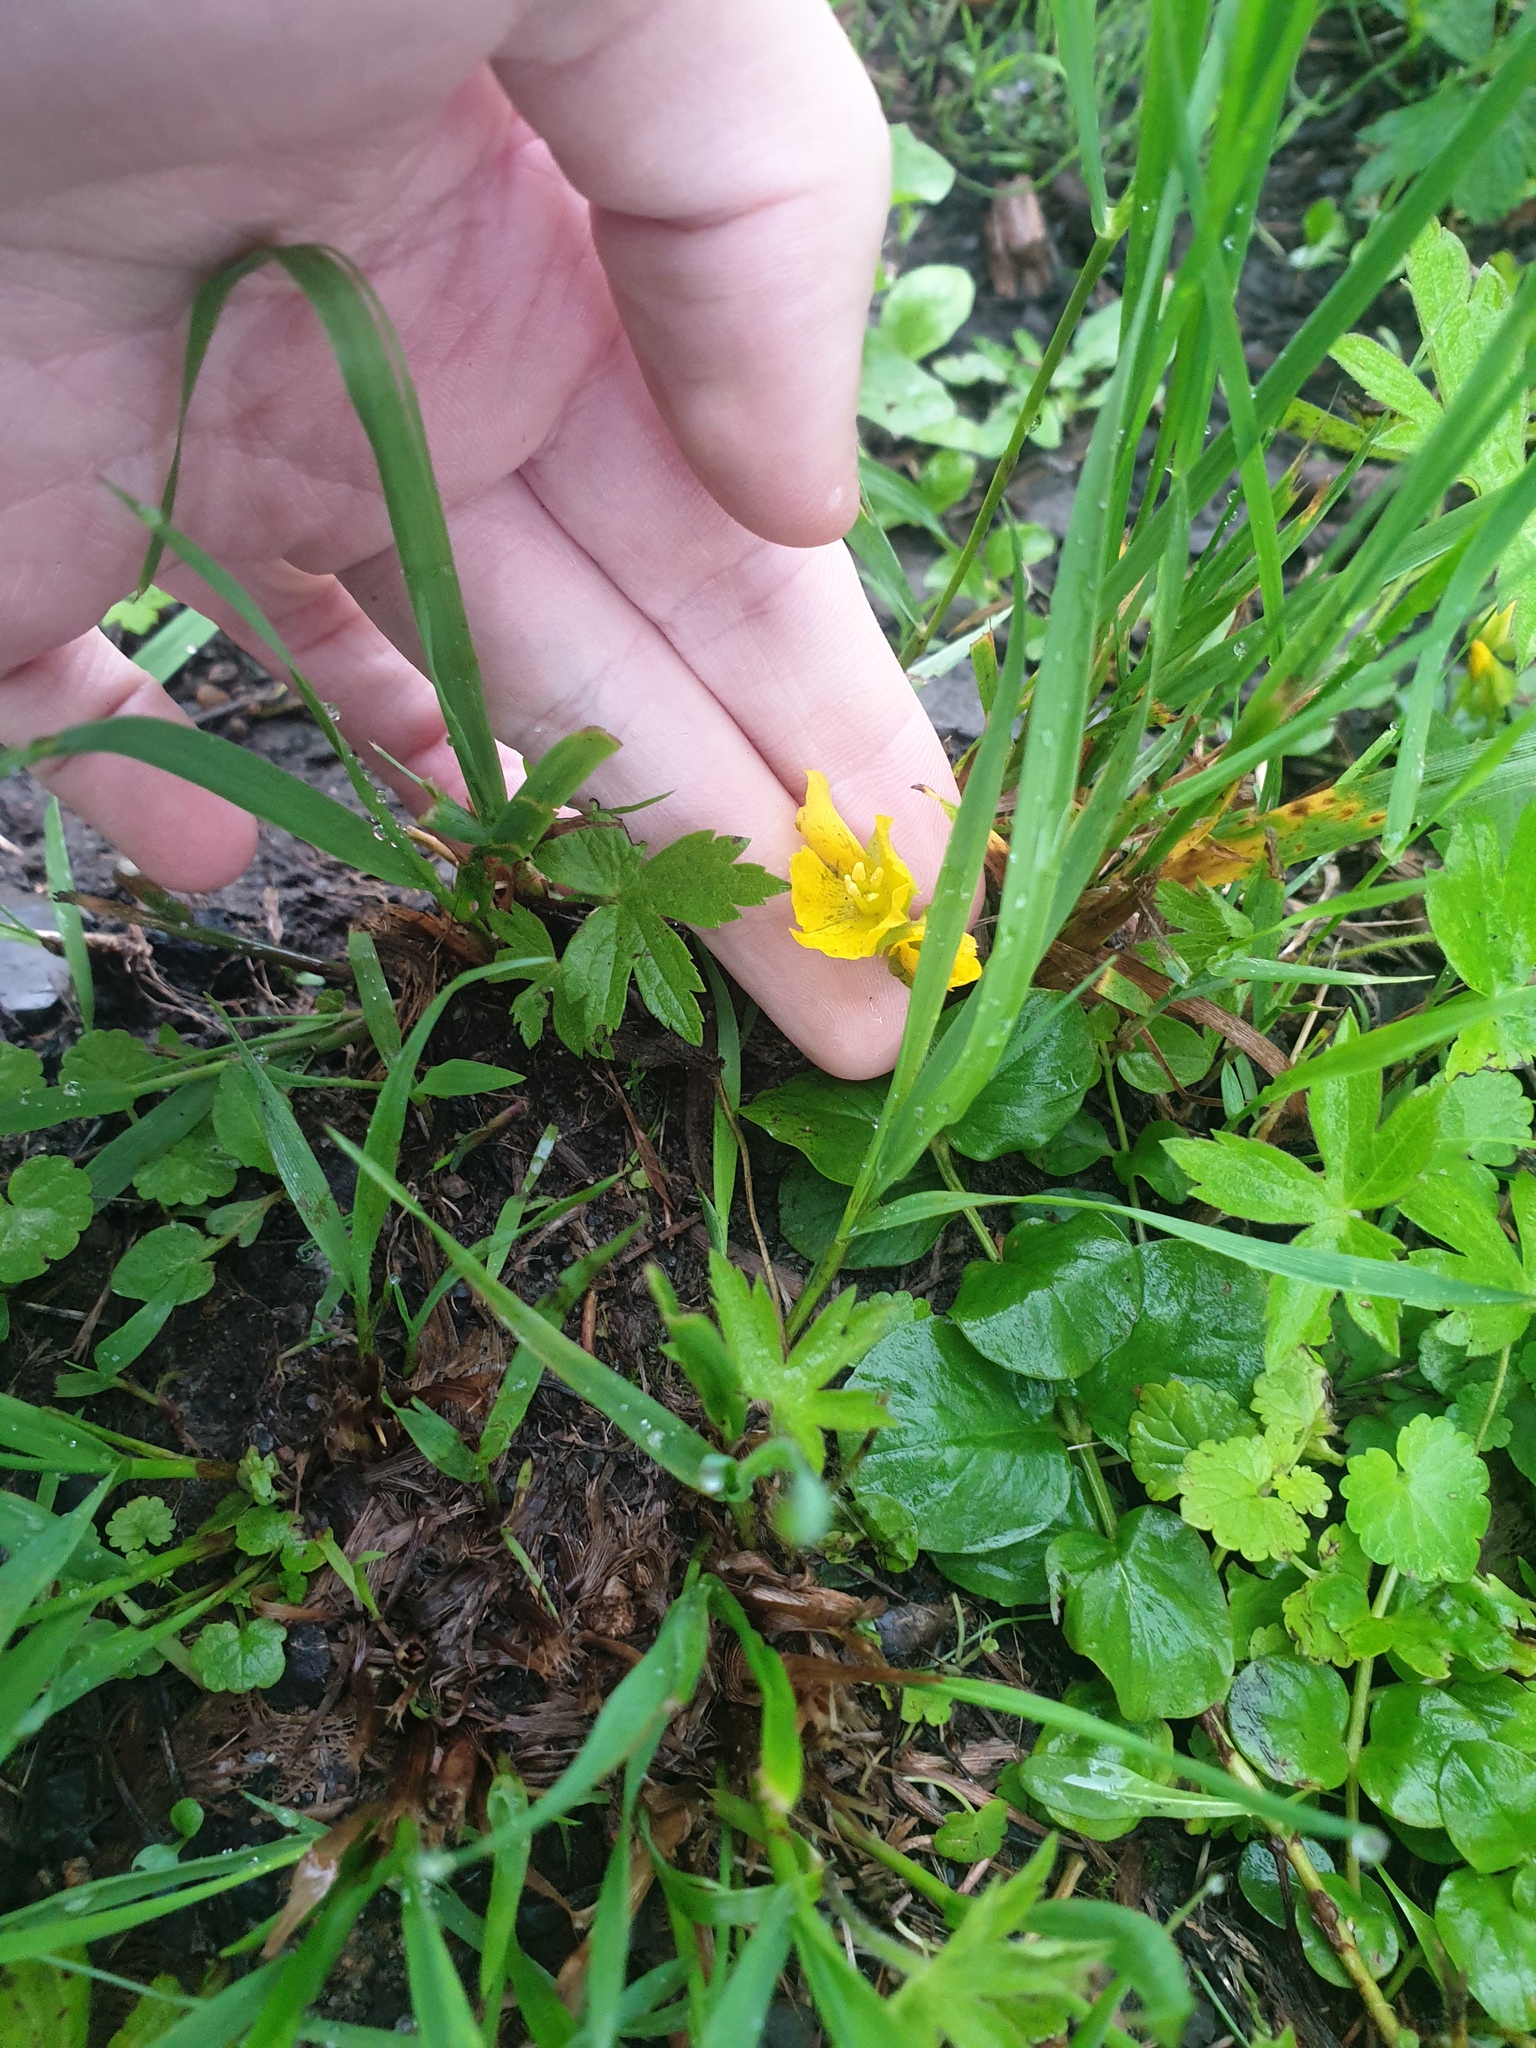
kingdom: Plantae
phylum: Tracheophyta
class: Magnoliopsida
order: Ericales
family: Primulaceae
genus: Lysimachia
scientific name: Lysimachia nummularia
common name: Moneywort
